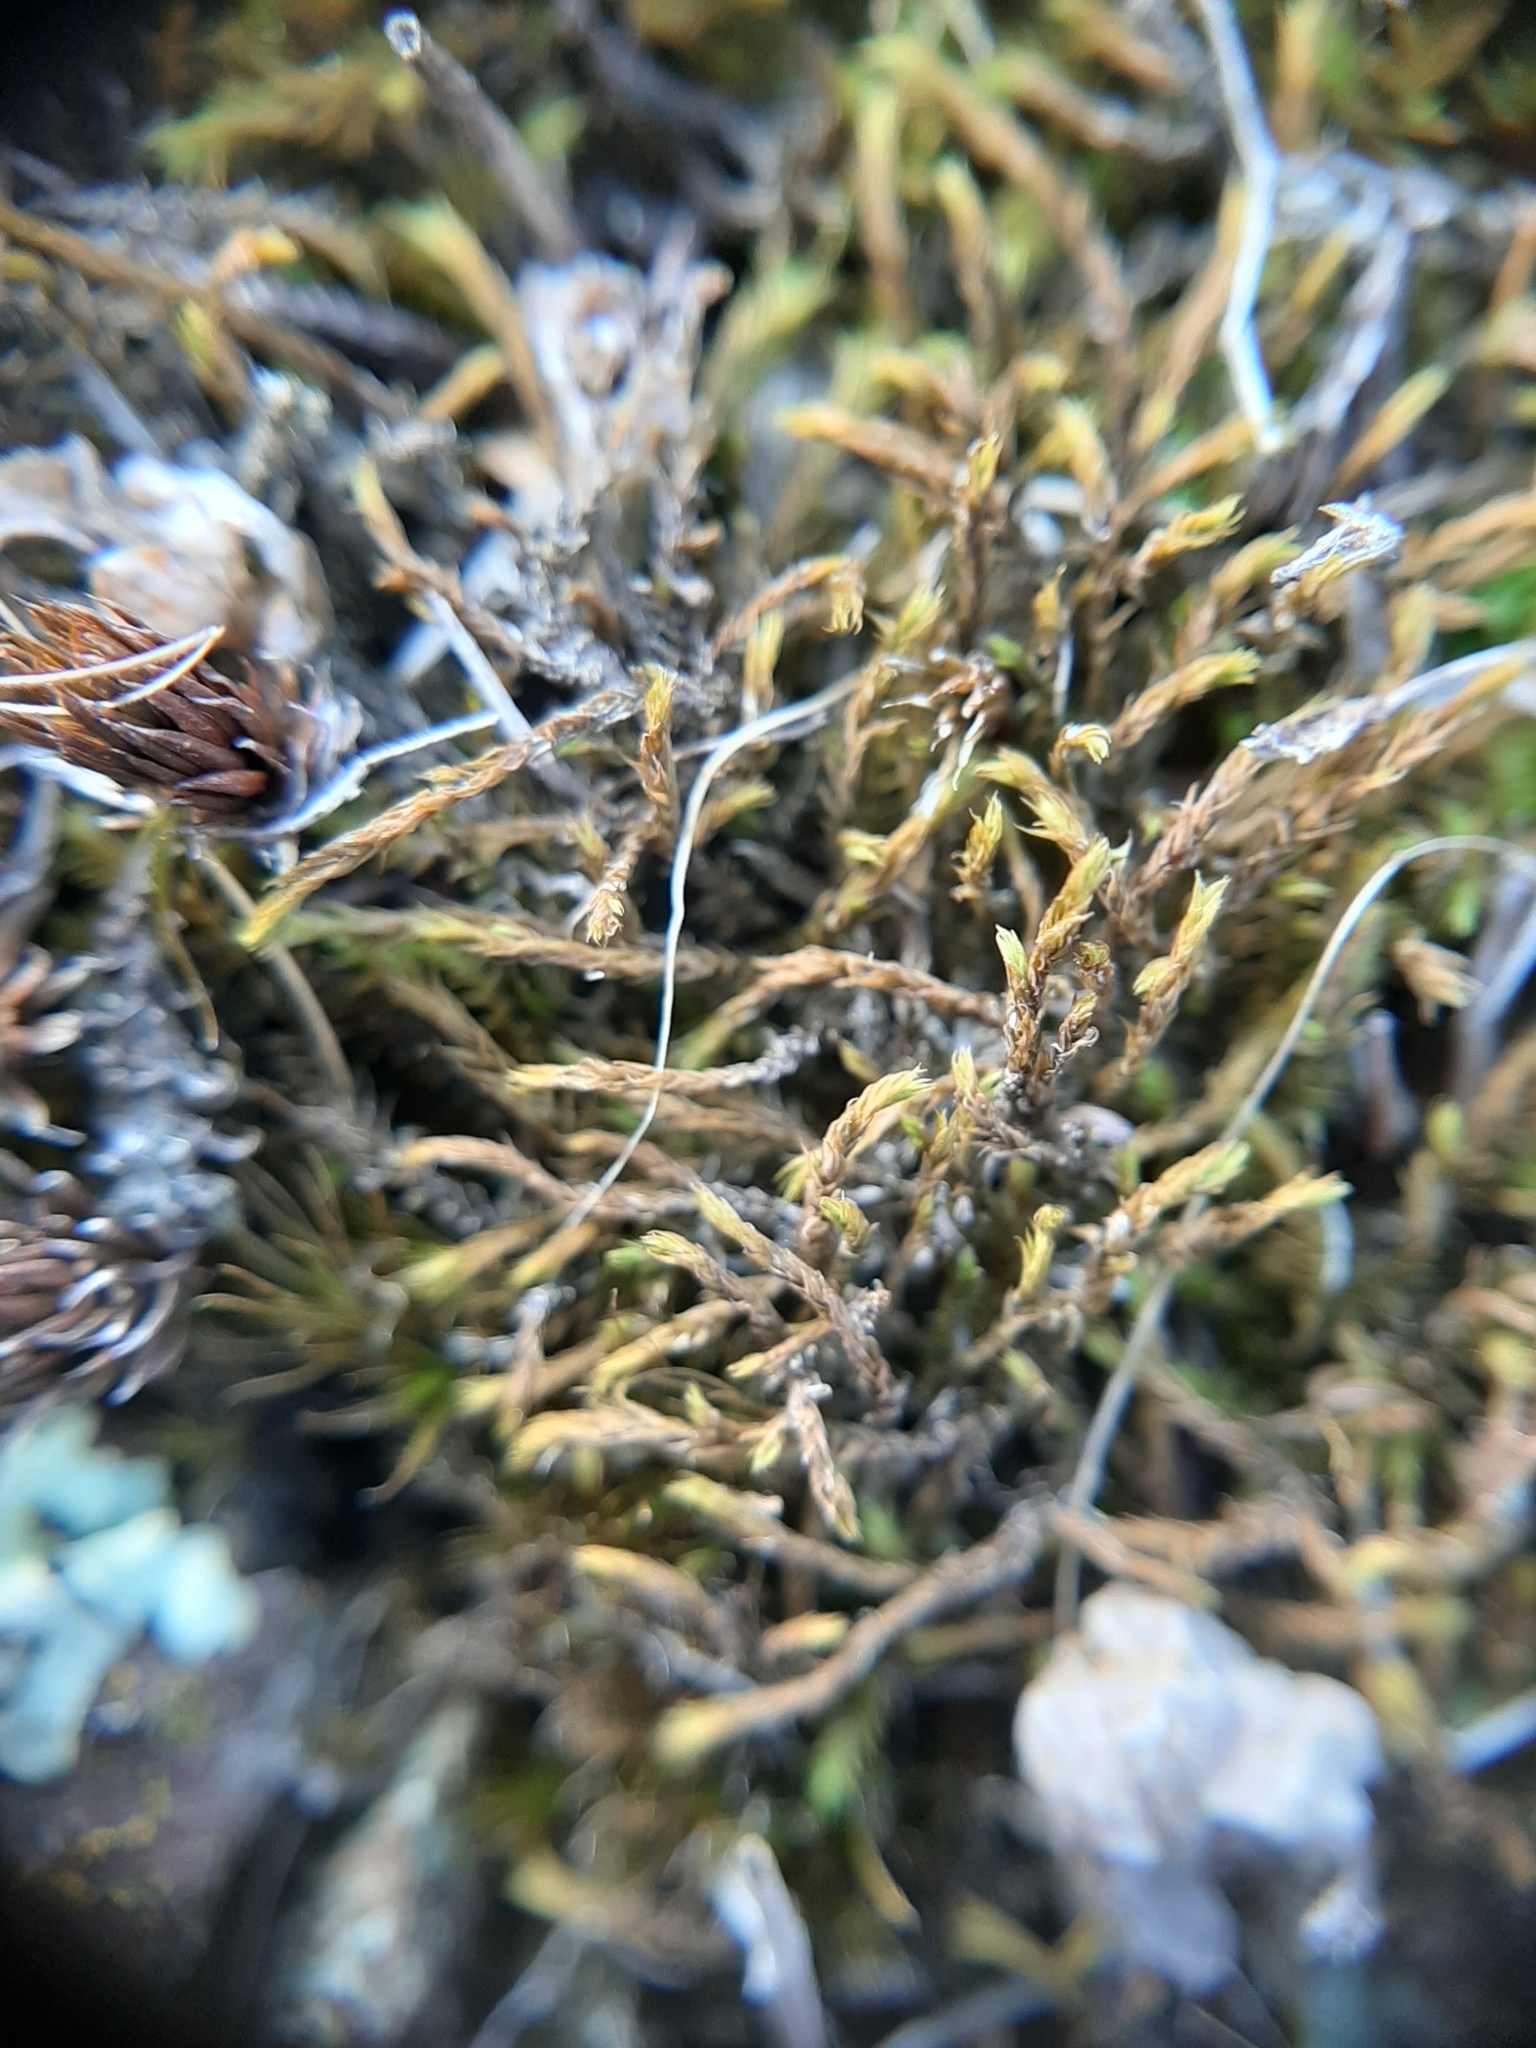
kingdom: Plantae
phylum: Bryophyta
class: Bryopsida
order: Pottiales
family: Pottiaceae
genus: Triquetrella
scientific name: Triquetrella papillata
